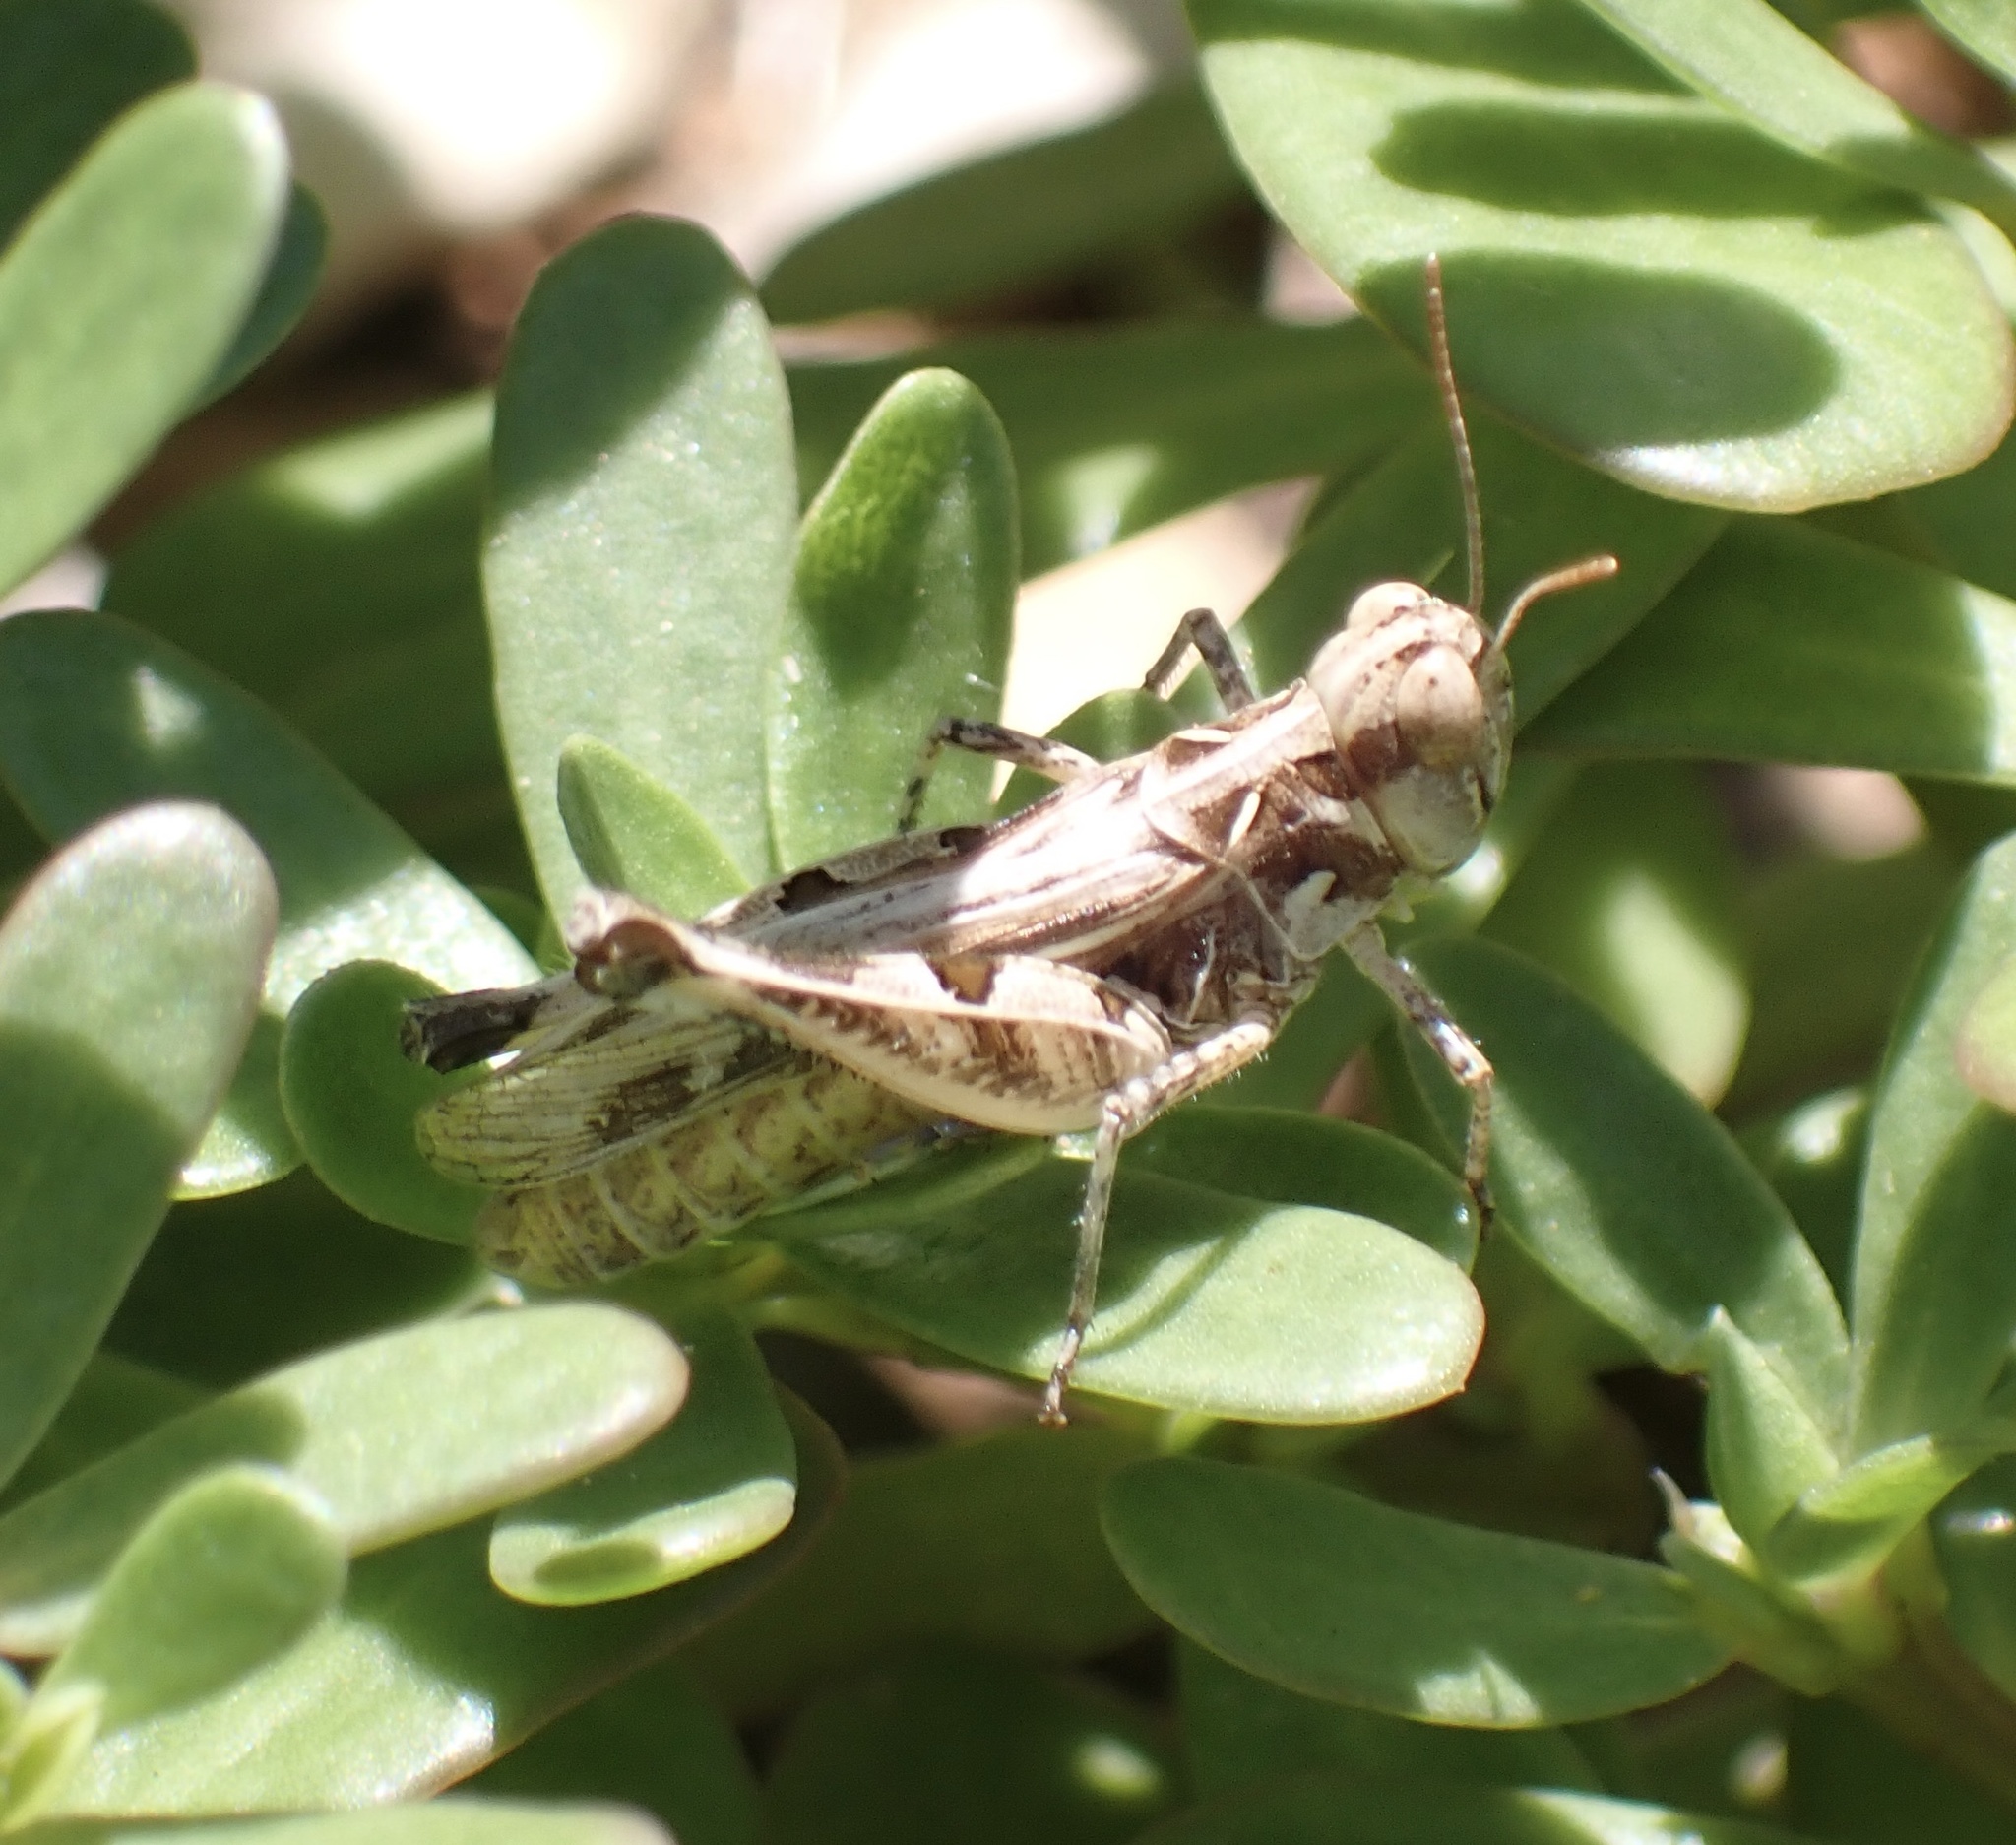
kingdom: Animalia
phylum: Arthropoda
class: Insecta
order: Orthoptera
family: Acrididae
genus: Dociostaurus
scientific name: Dociostaurus genei
